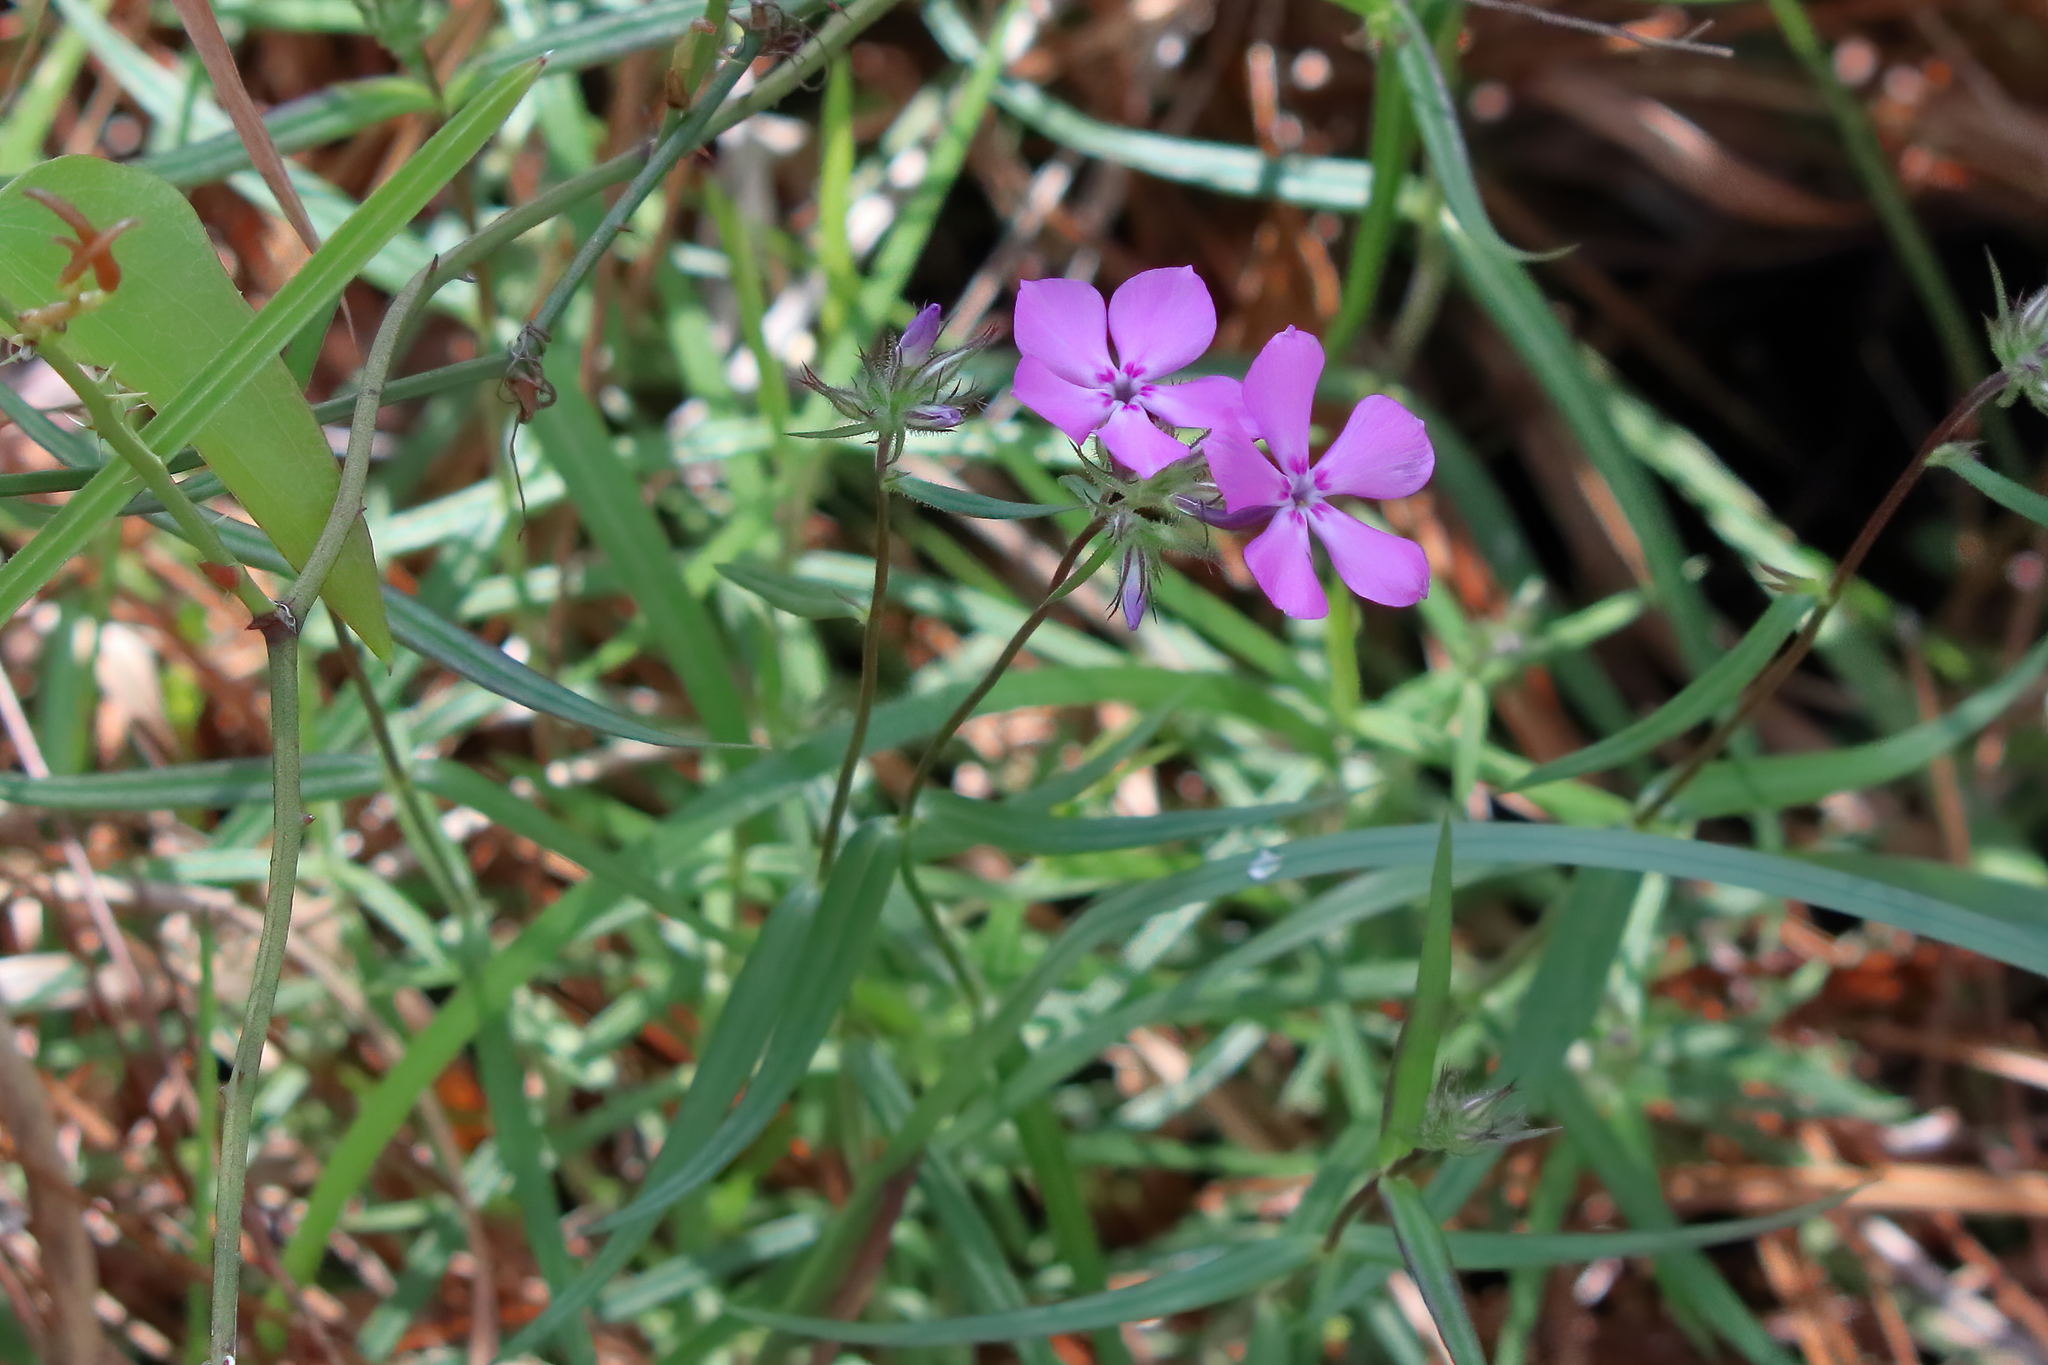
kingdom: Plantae
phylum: Tracheophyta
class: Magnoliopsida
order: Ericales
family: Polemoniaceae
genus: Phlox
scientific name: Phlox pilosa
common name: Prairie phlox
